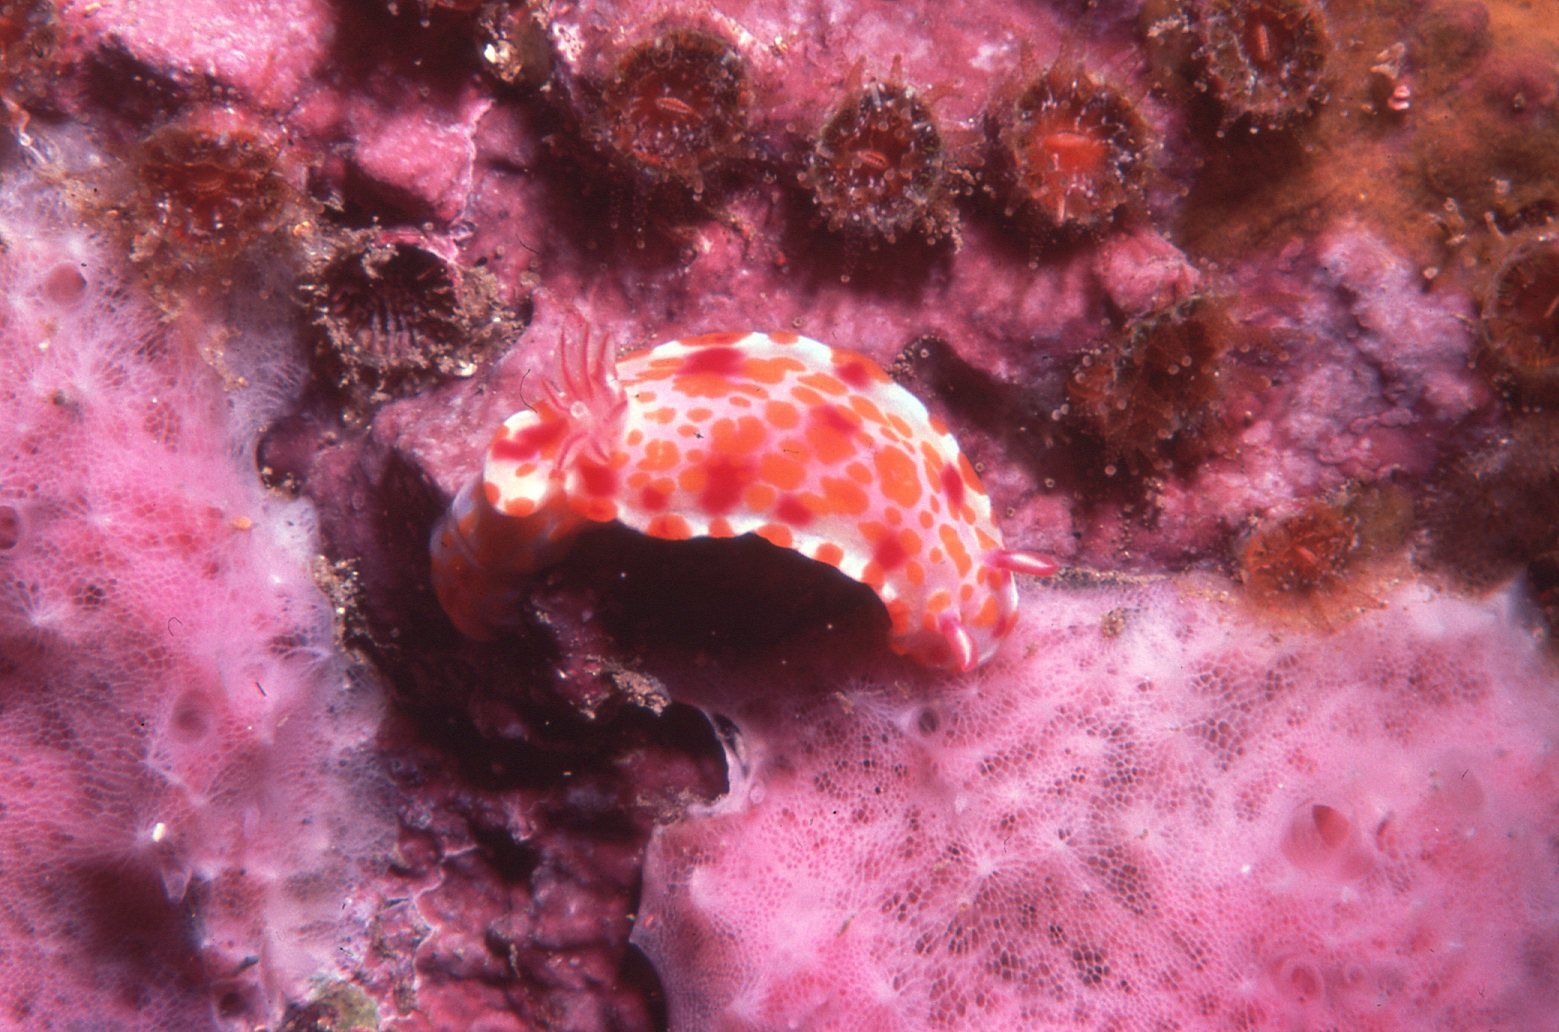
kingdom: Animalia
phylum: Mollusca
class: Gastropoda
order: Nudibranchia
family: Chromodorididae
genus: Ceratosoma
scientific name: Ceratosoma amoenum
